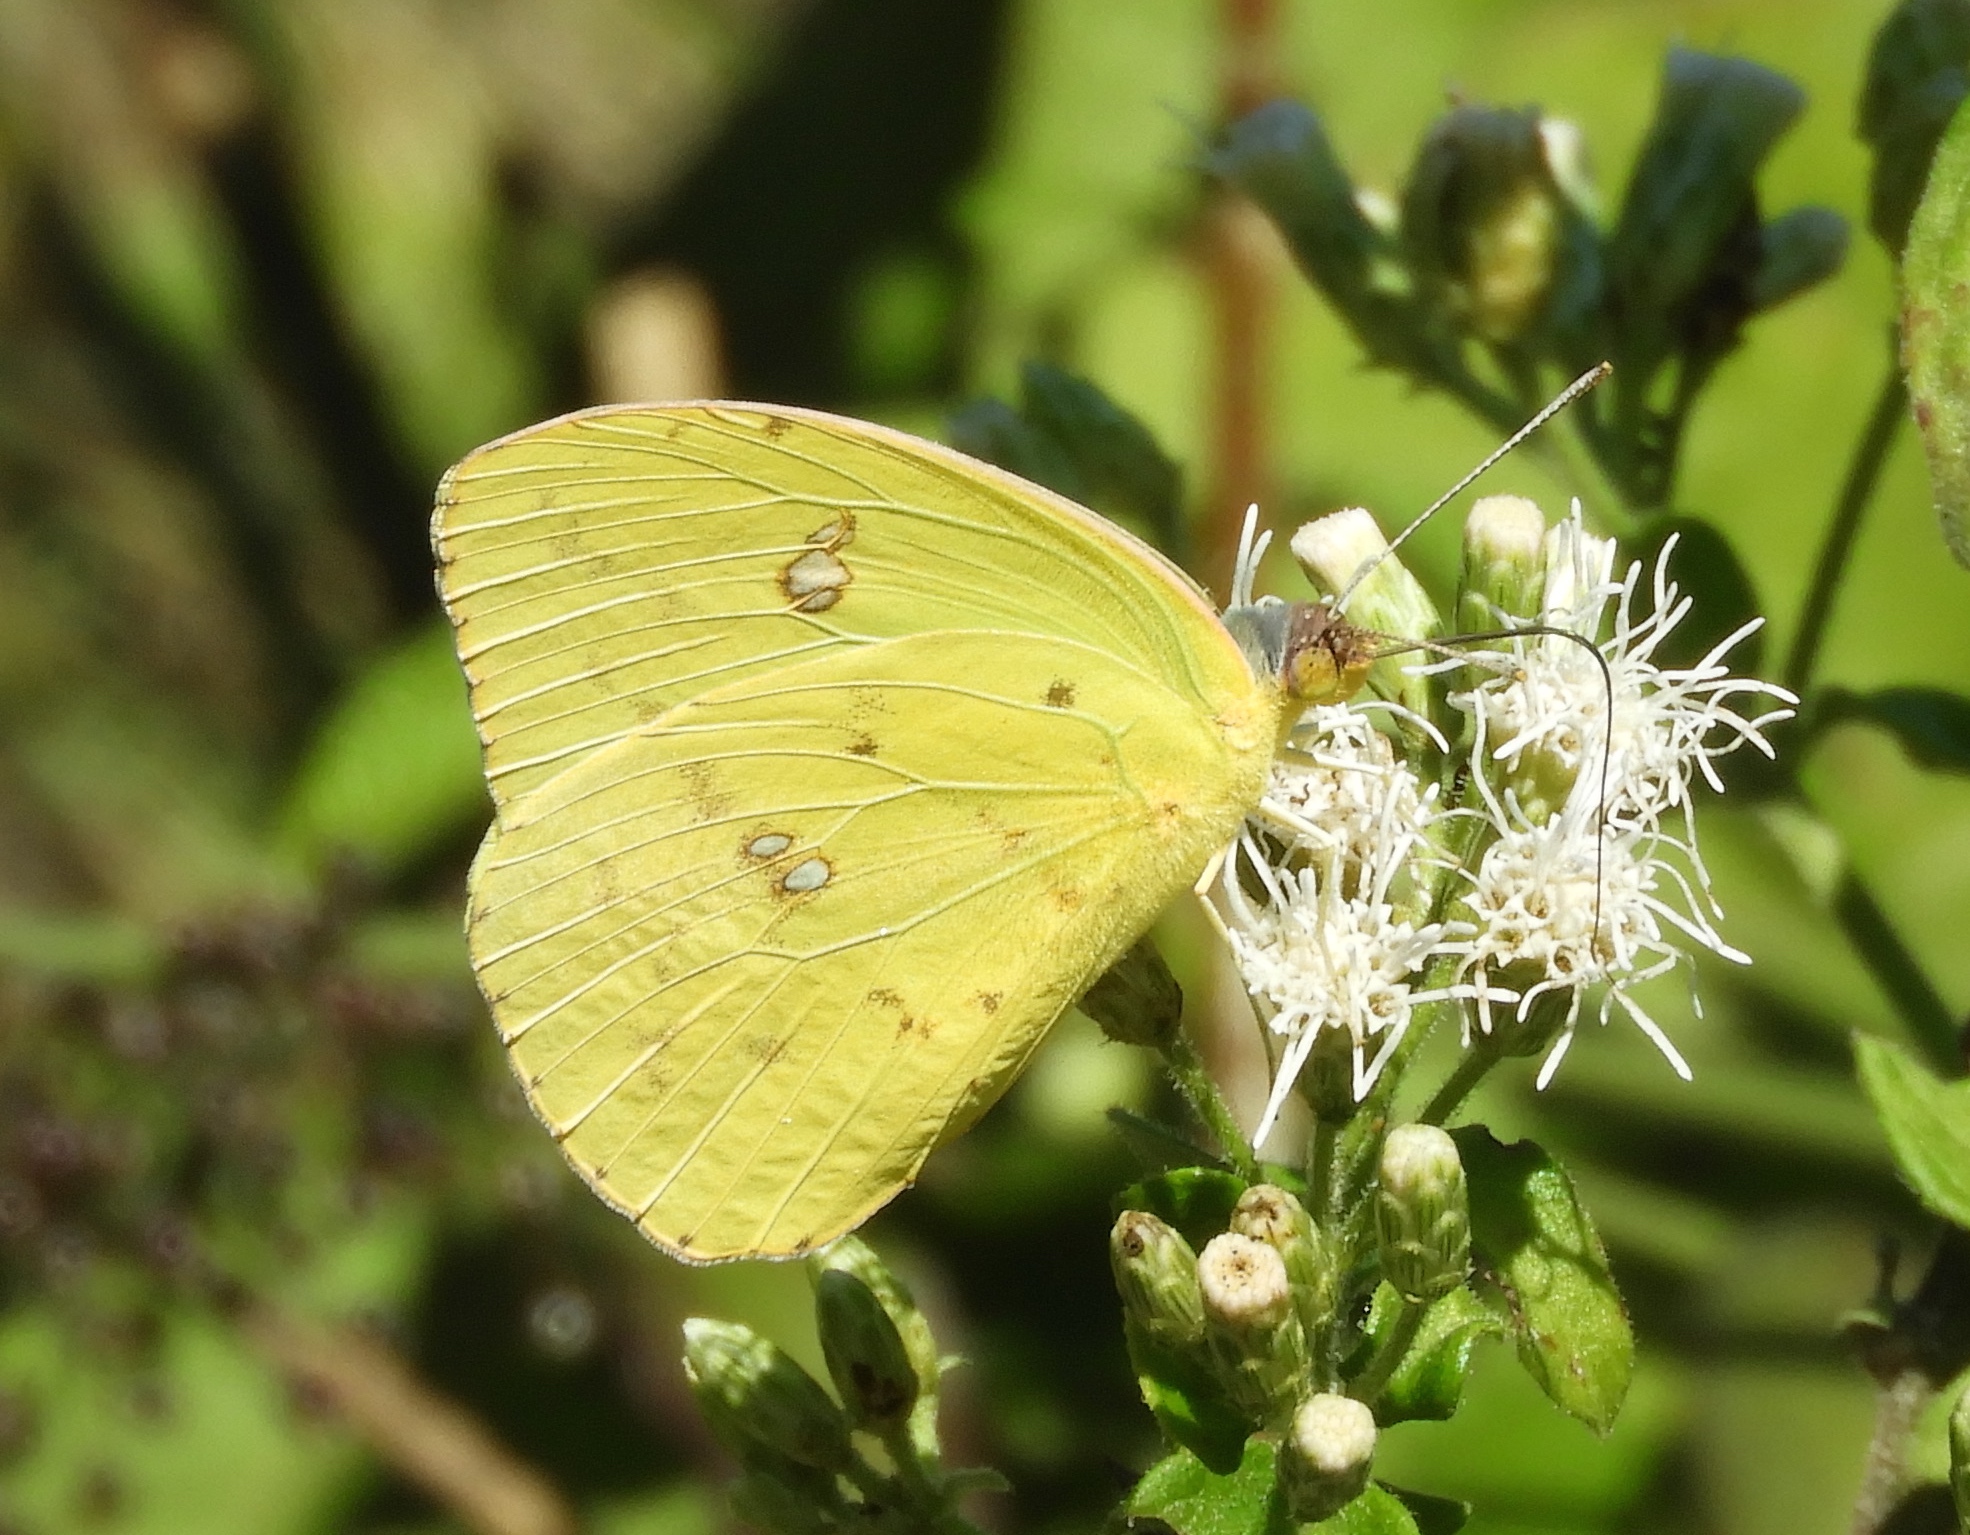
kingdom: Animalia
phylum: Arthropoda
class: Insecta
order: Lepidoptera
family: Pieridae
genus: Phoebis
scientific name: Phoebis
